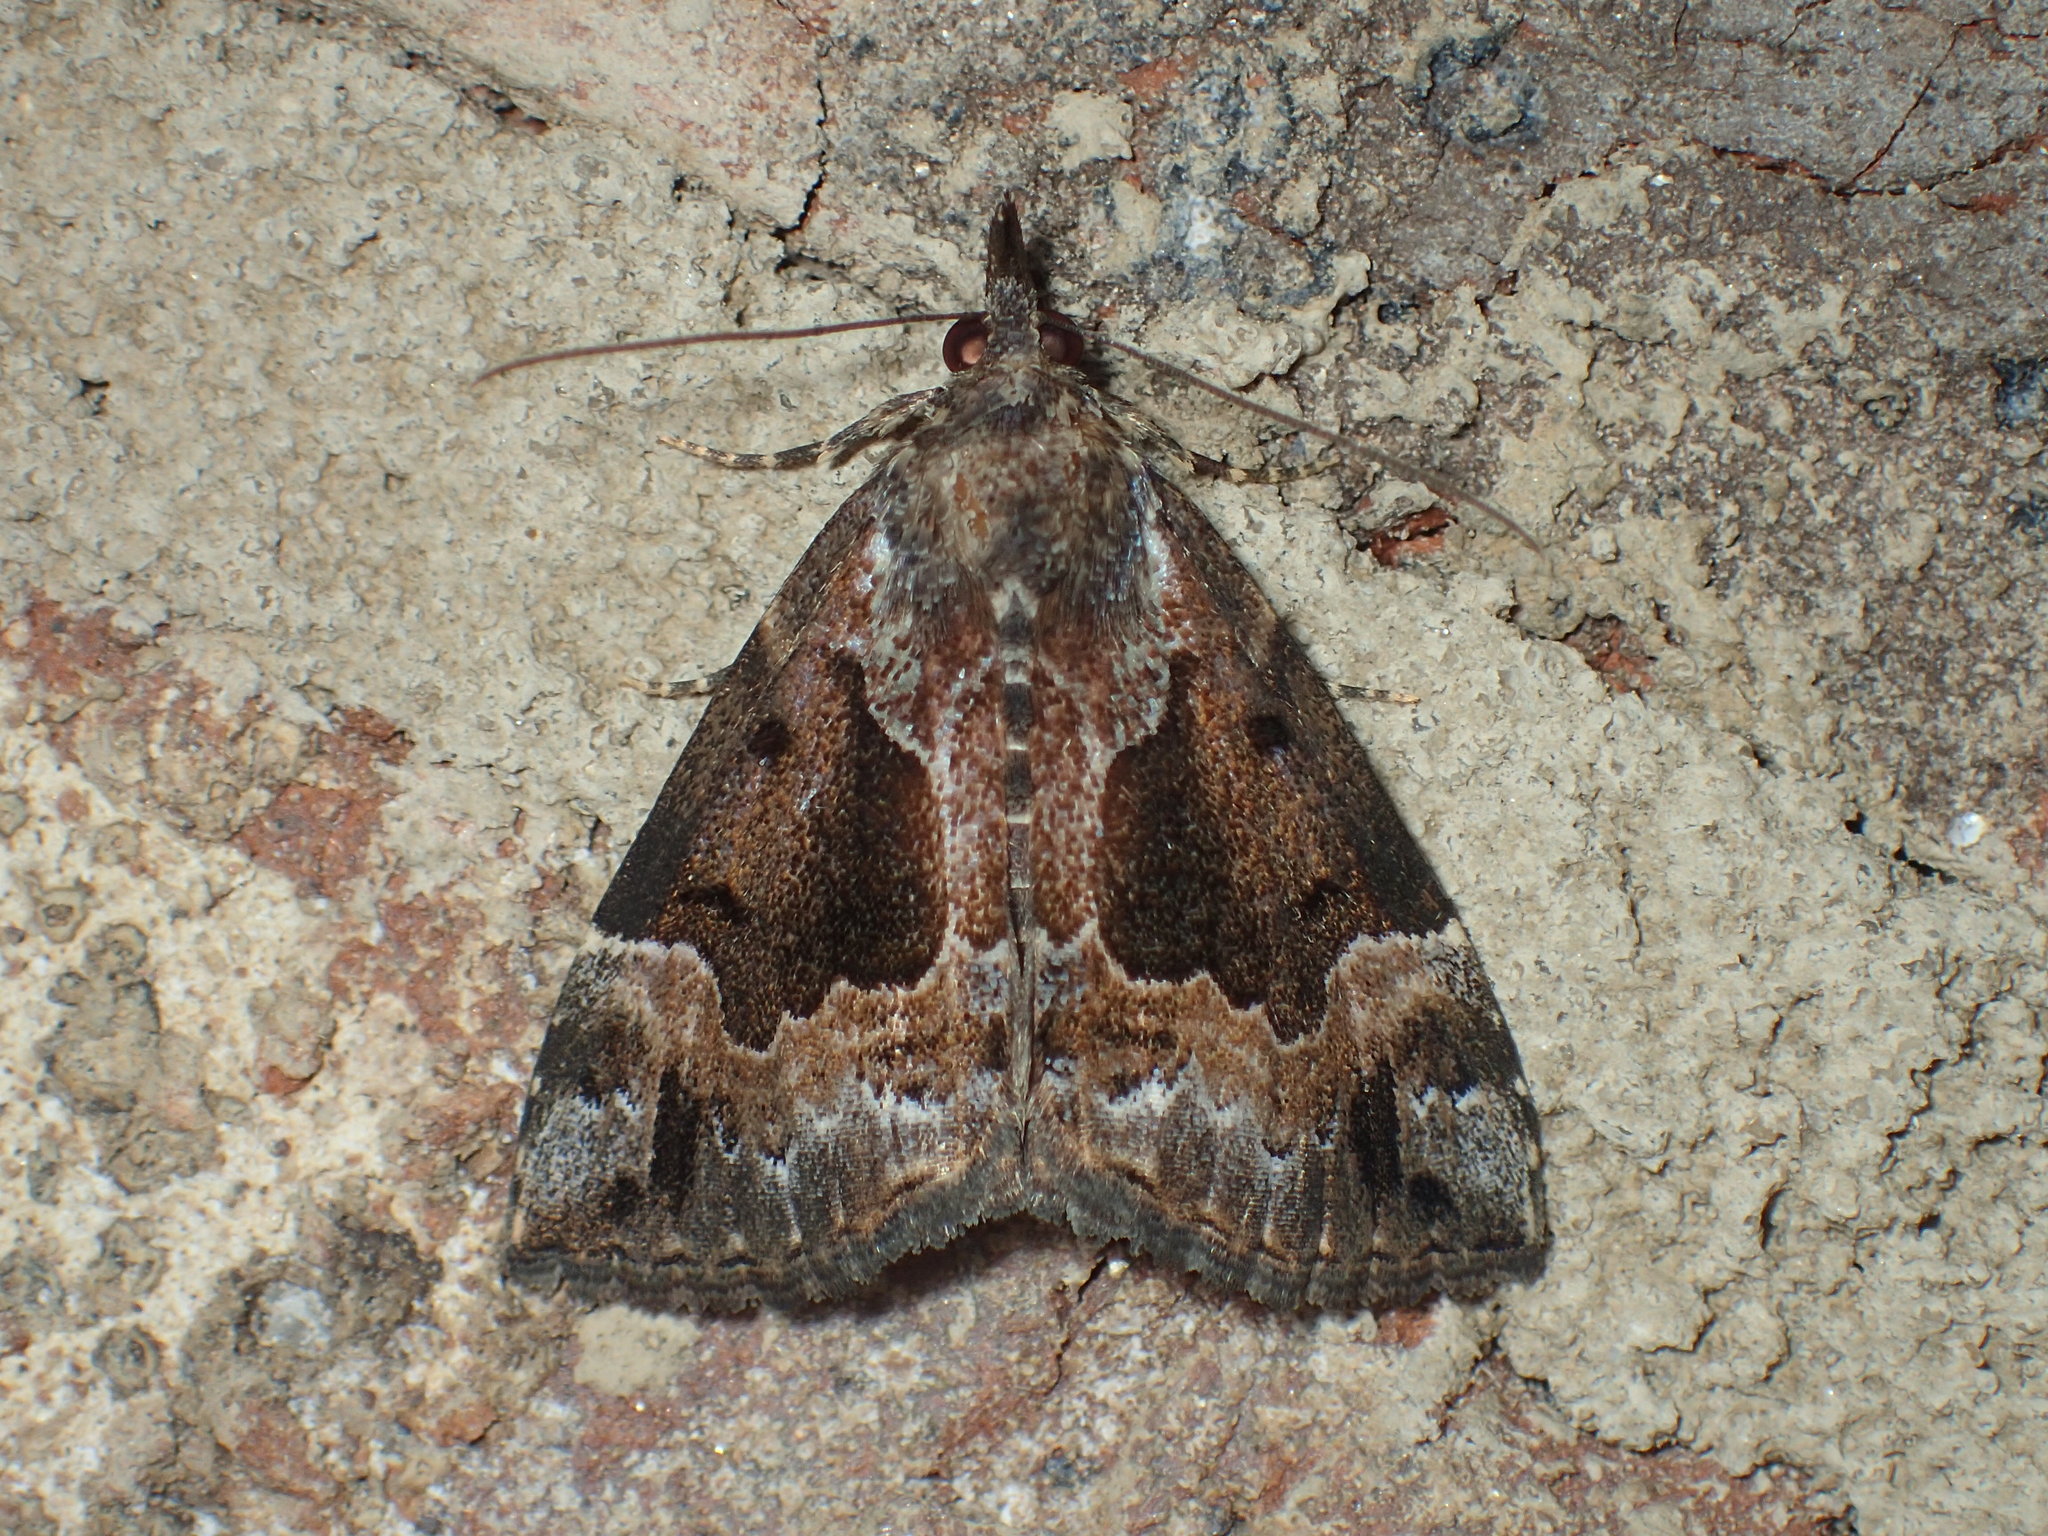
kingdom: Animalia
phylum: Arthropoda
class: Insecta
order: Lepidoptera
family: Erebidae
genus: Hypena
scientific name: Hypena palparia
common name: Mottled bomolocha moth
